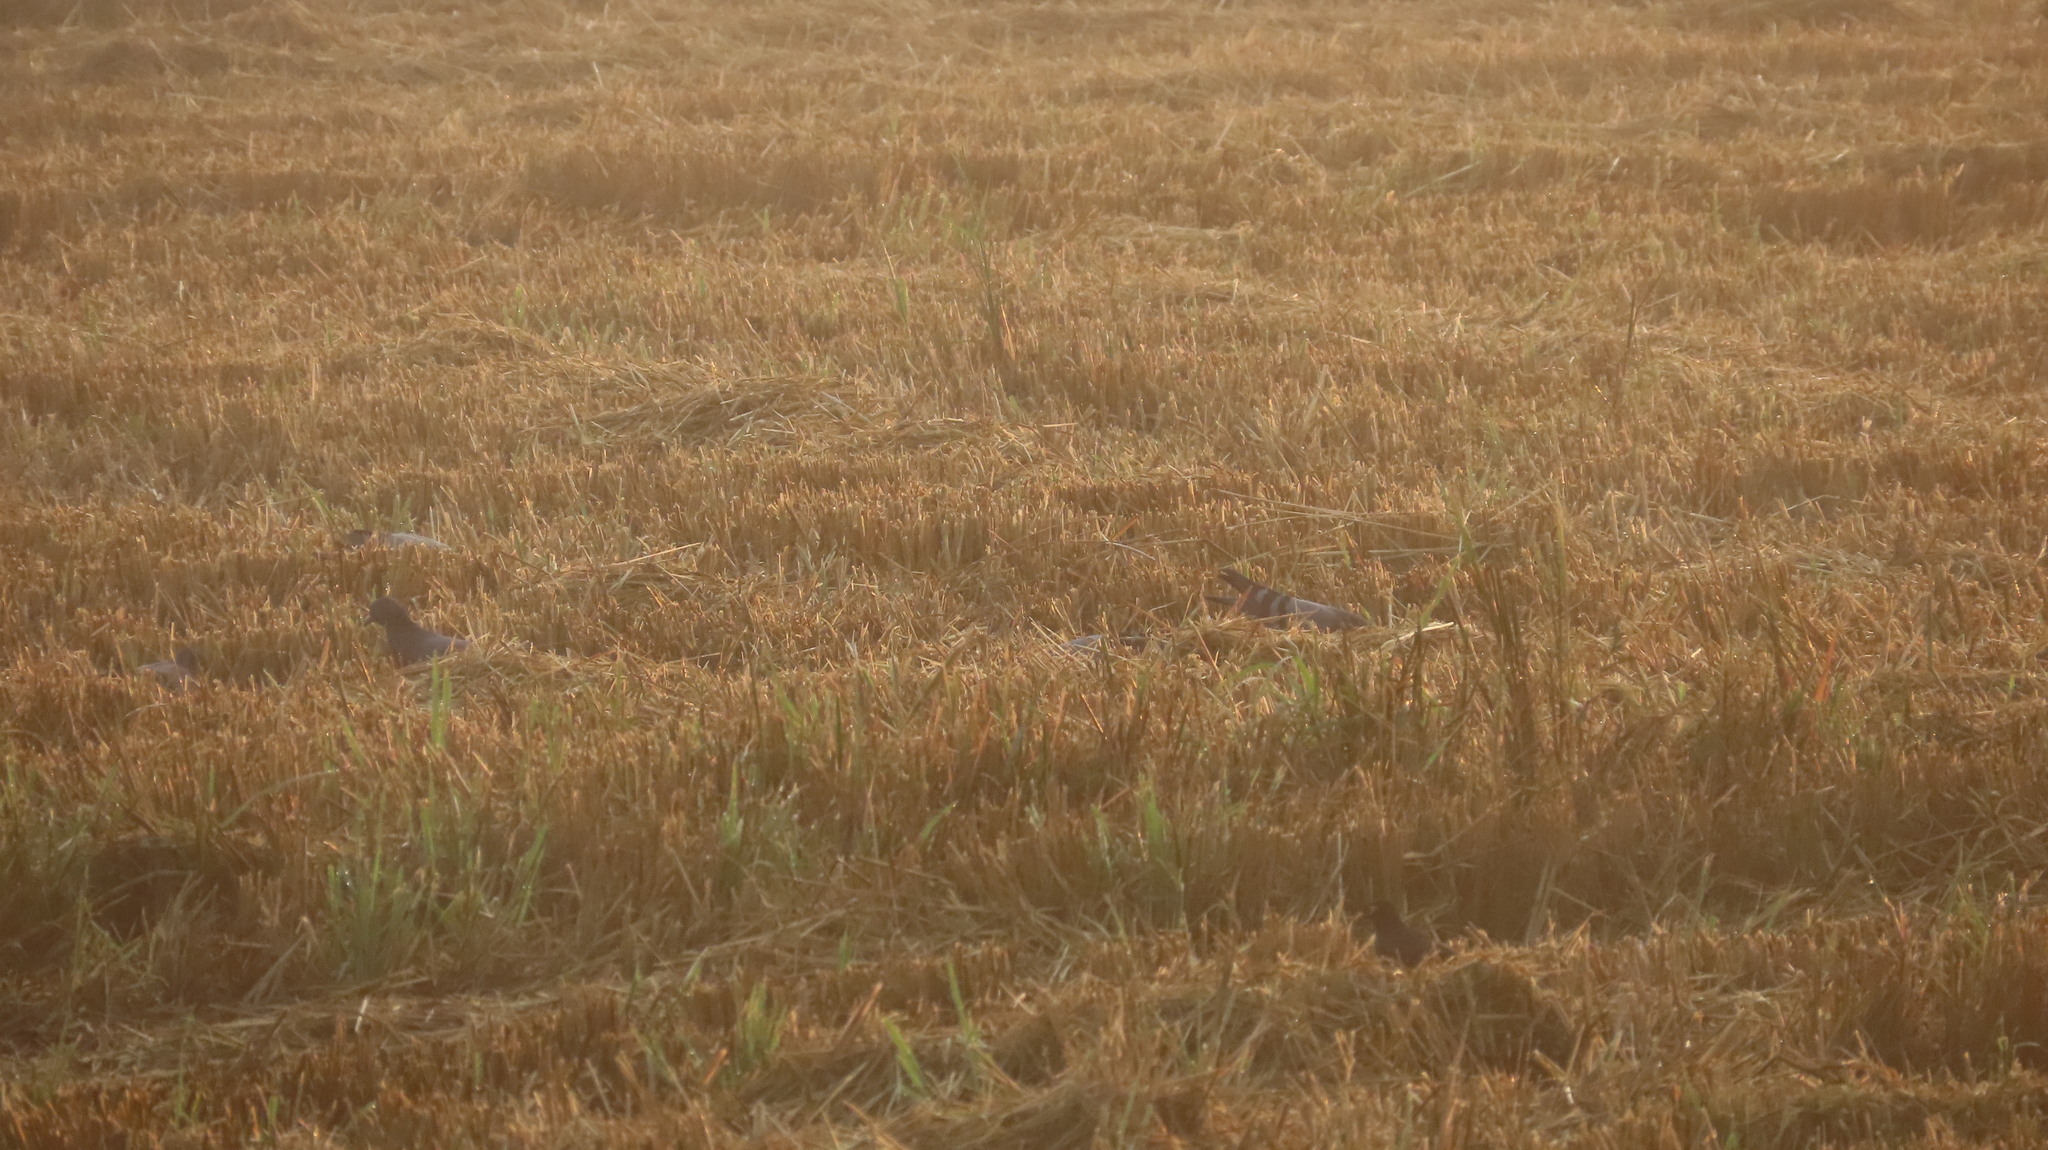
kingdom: Animalia
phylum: Chordata
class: Aves
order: Columbiformes
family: Columbidae
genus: Columba
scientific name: Columba livia
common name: Rock pigeon
